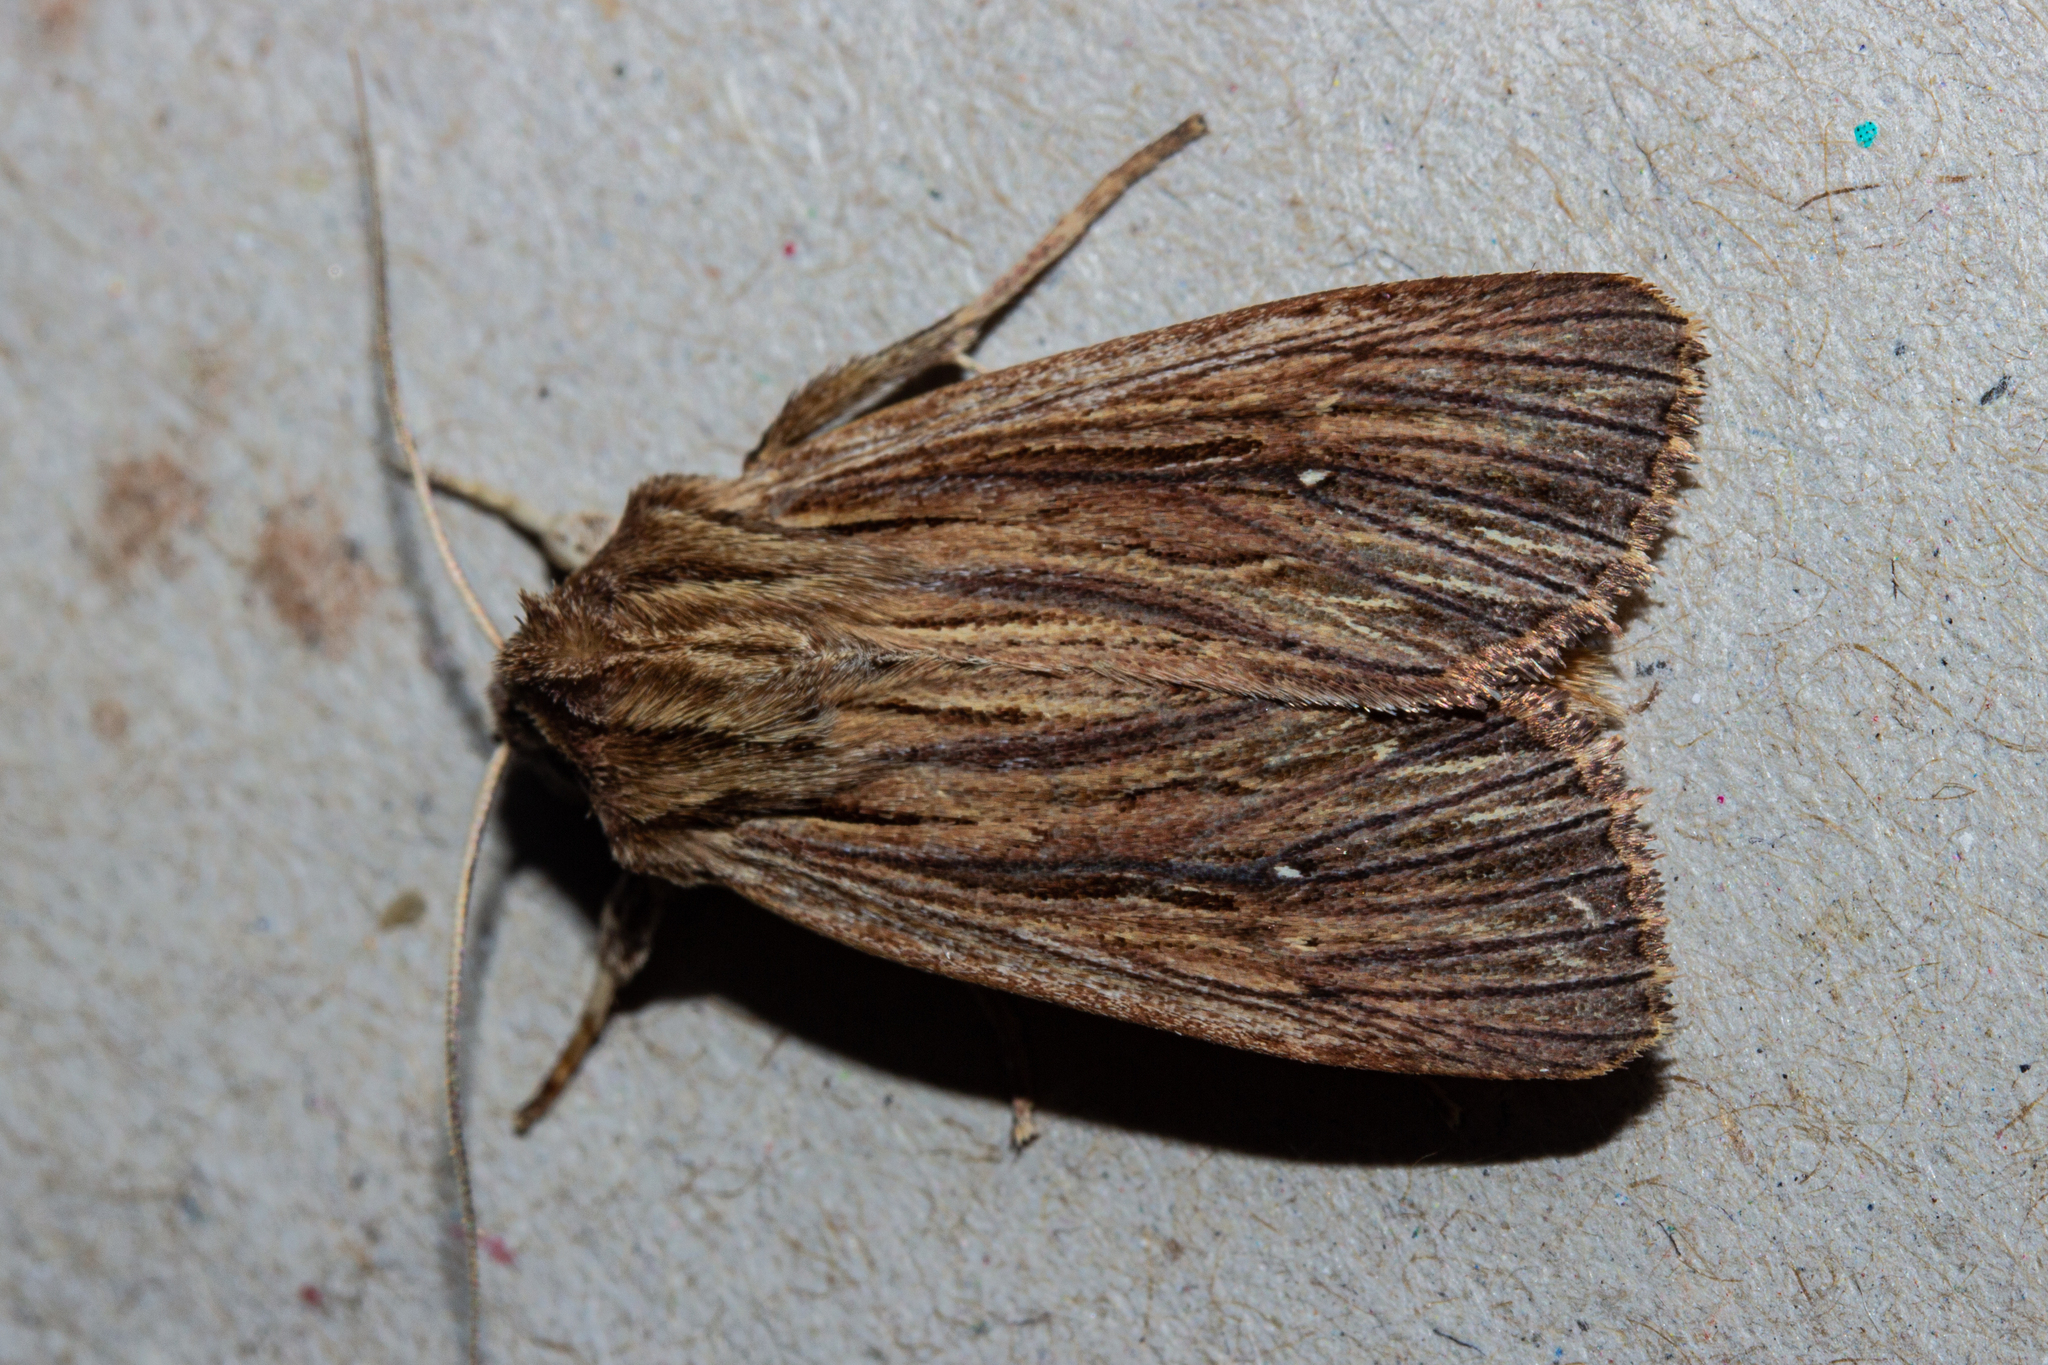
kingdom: Animalia
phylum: Arthropoda
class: Insecta
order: Lepidoptera
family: Noctuidae
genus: Ichneutica
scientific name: Ichneutica
